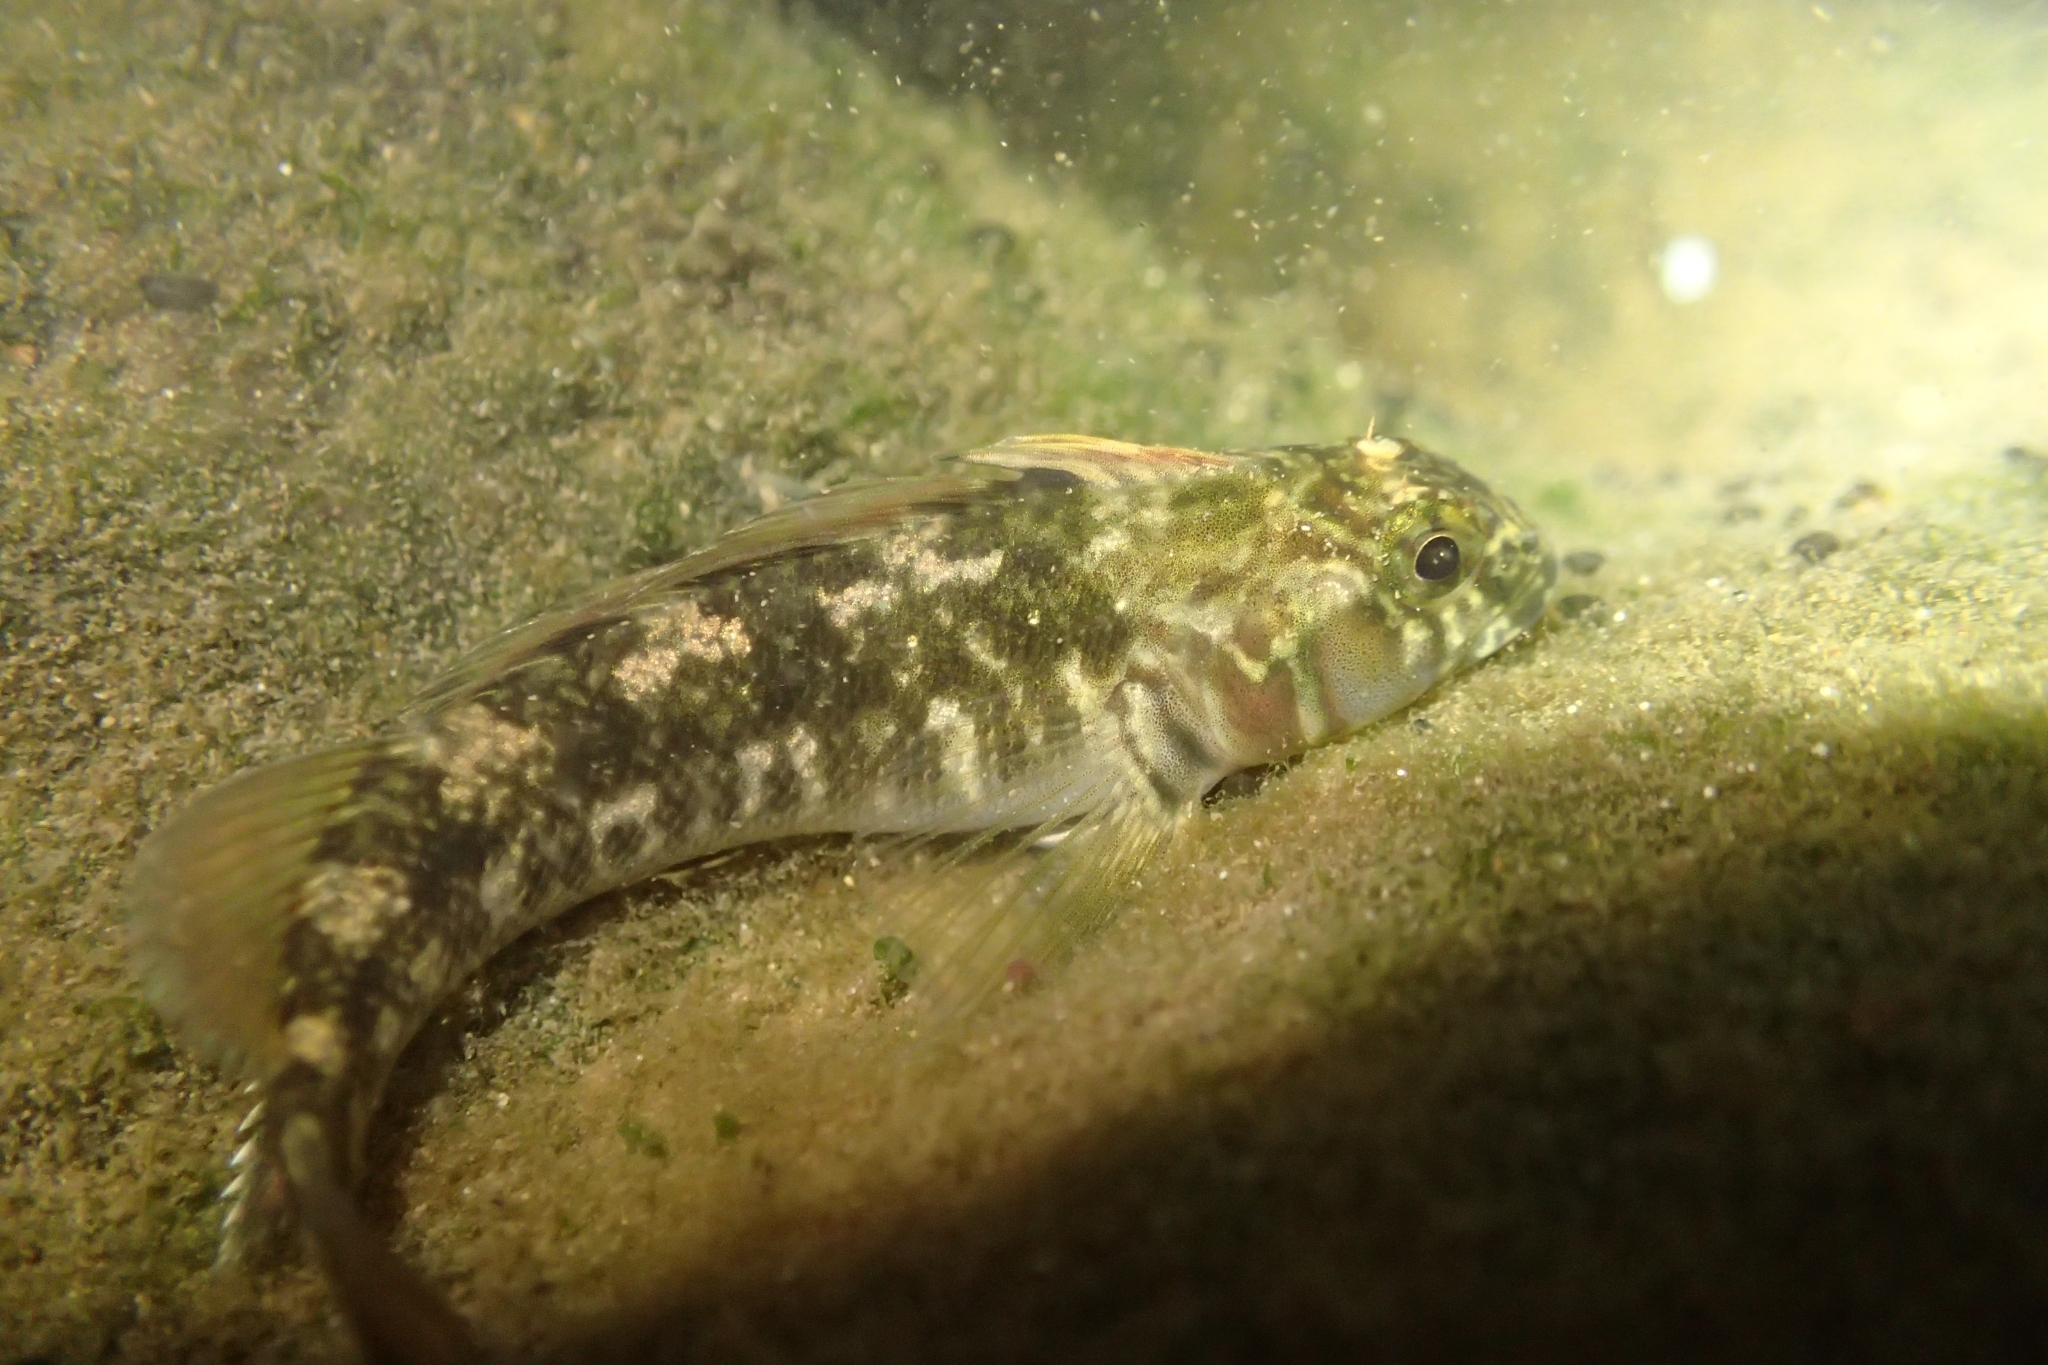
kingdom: Animalia
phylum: Chordata
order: Perciformes
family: Tripterygiidae
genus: Forsterygion
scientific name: Forsterygion nigripenne
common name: Cockabully
